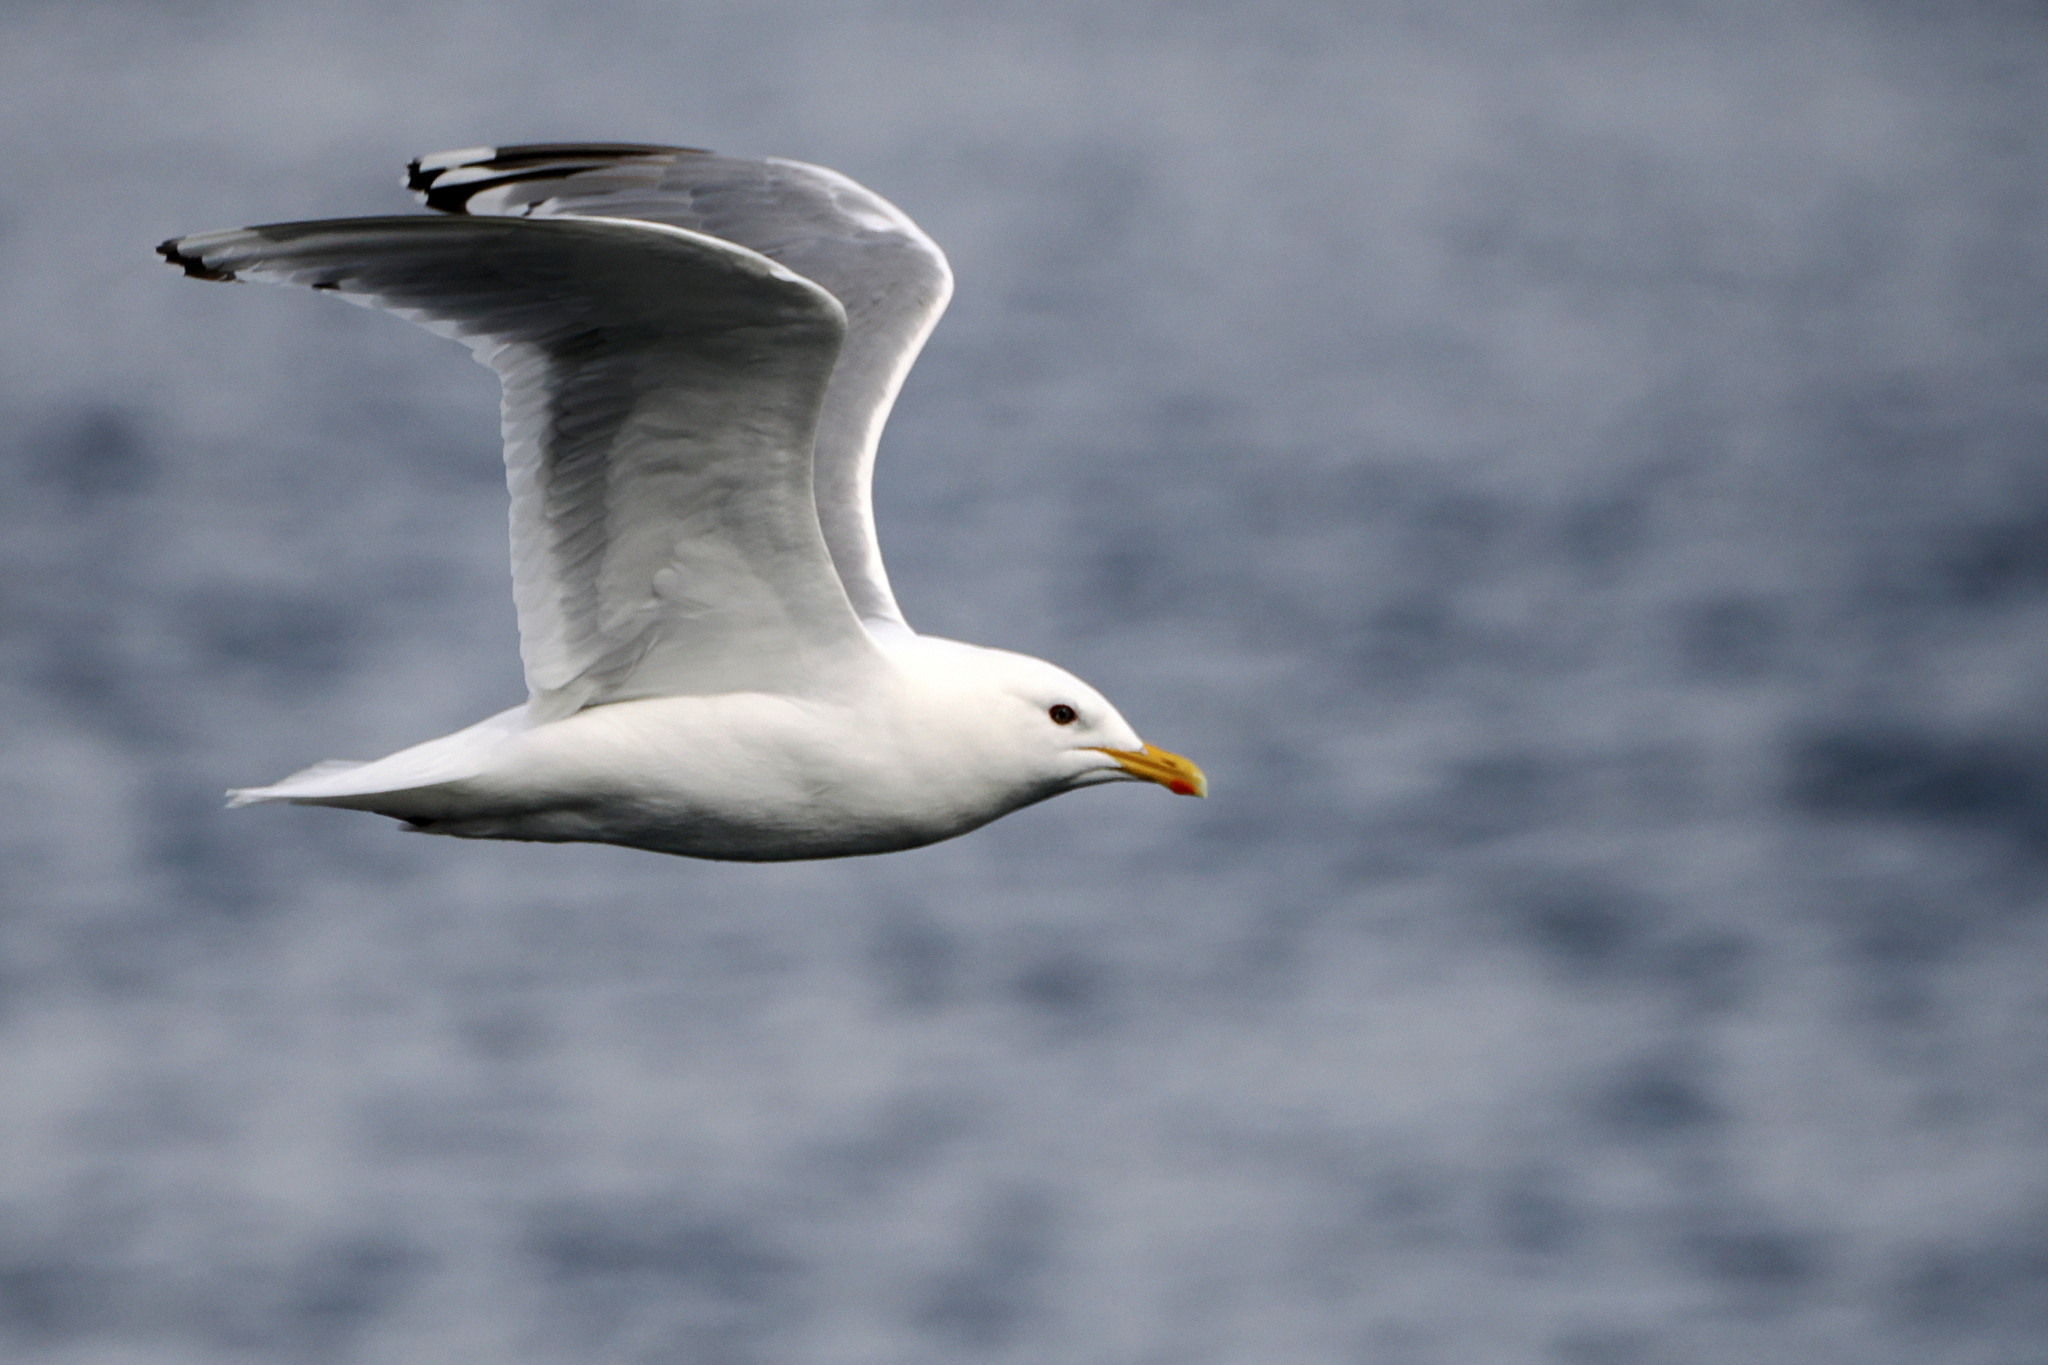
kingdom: Animalia
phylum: Chordata
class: Aves
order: Charadriiformes
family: Laridae
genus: Larus
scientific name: Larus glaucoides
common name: Iceland gull
